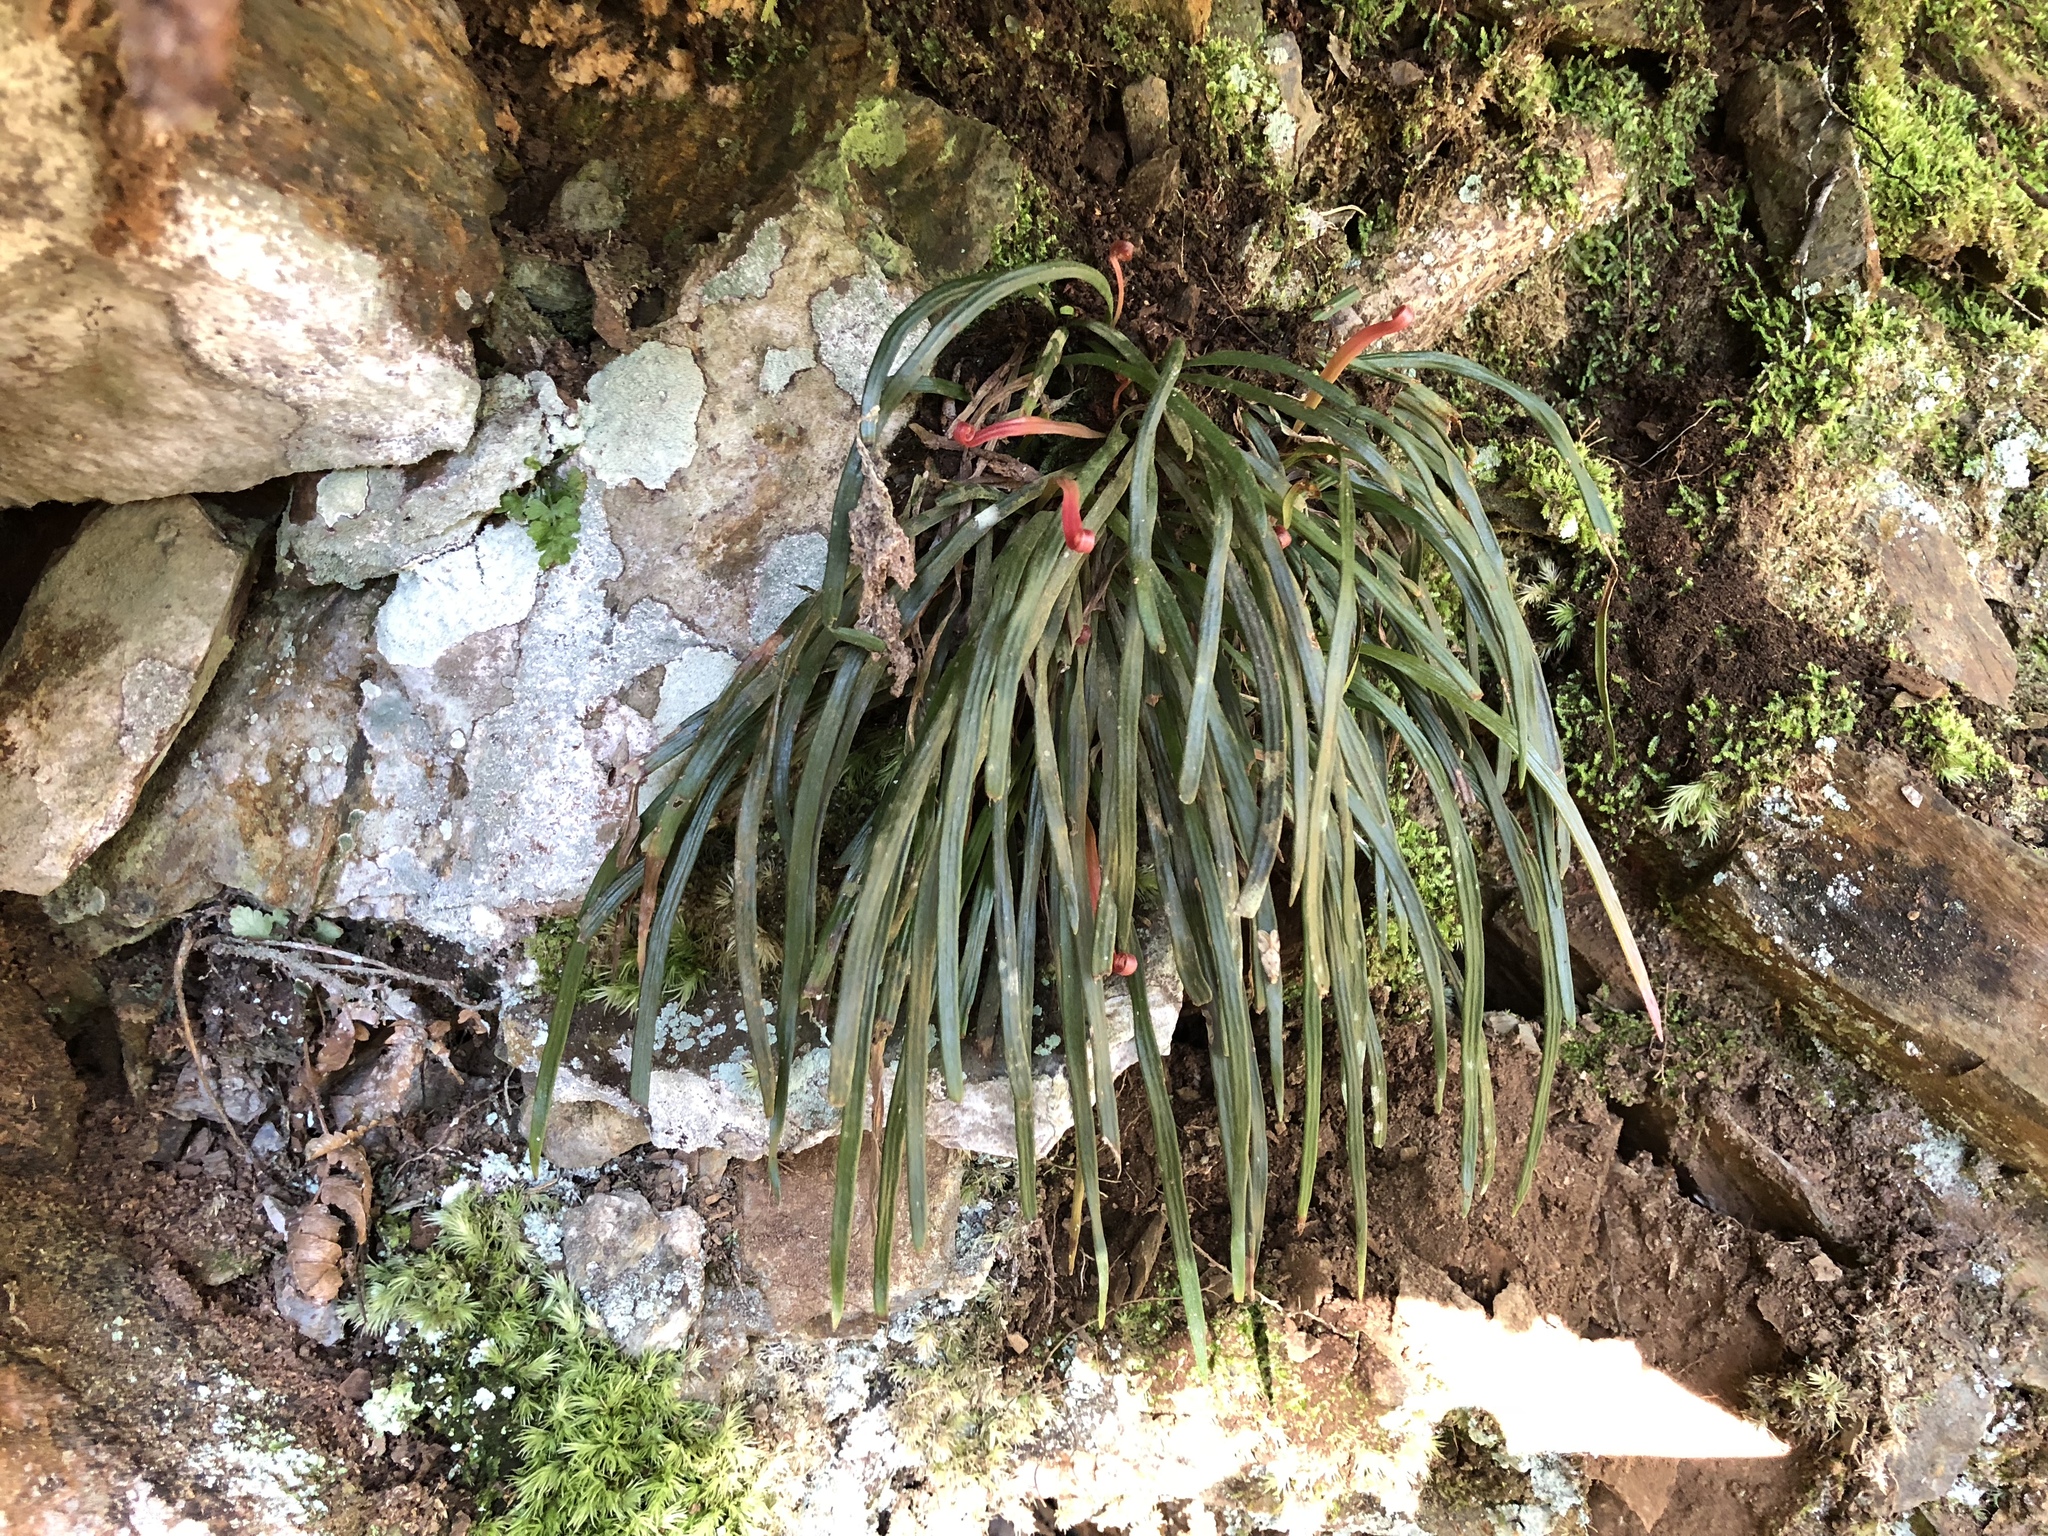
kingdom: Plantae
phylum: Tracheophyta
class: Polypodiopsida
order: Polypodiales
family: Pteridaceae
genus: Haplopteris
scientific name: Haplopteris flexuosa
